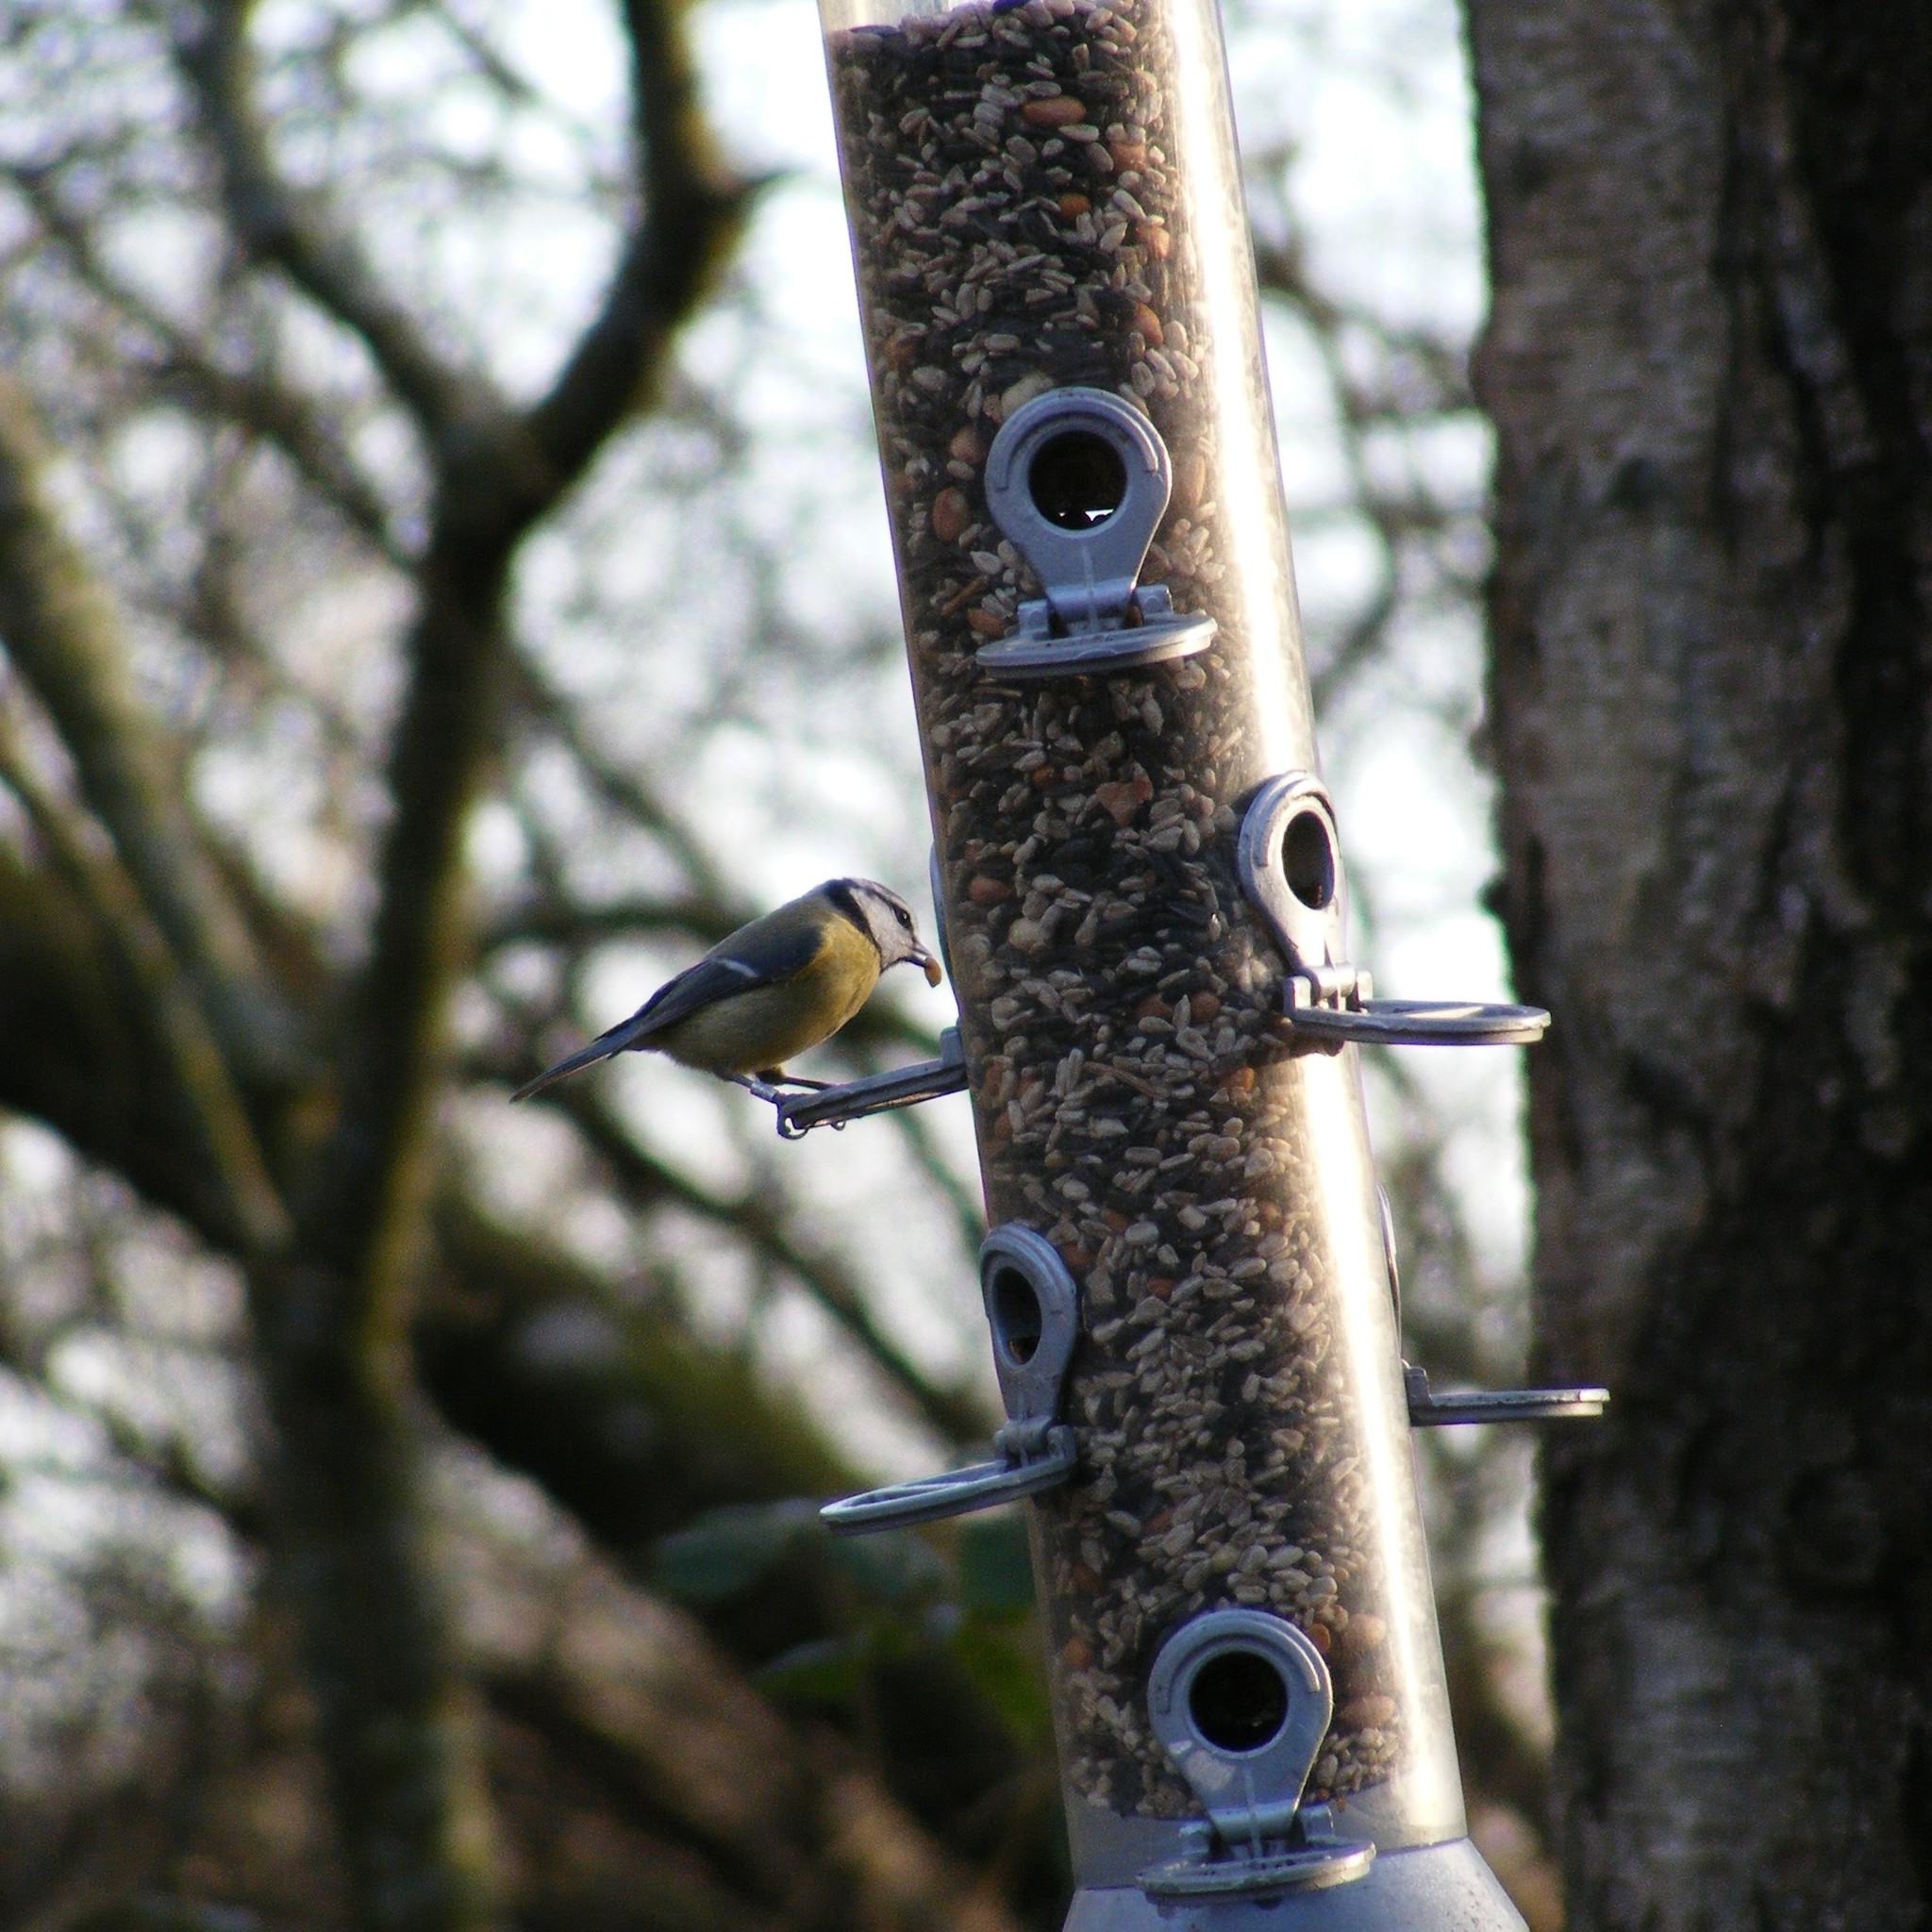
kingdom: Animalia
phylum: Chordata
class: Aves
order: Passeriformes
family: Paridae
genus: Cyanistes
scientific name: Cyanistes caeruleus
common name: Eurasian blue tit
